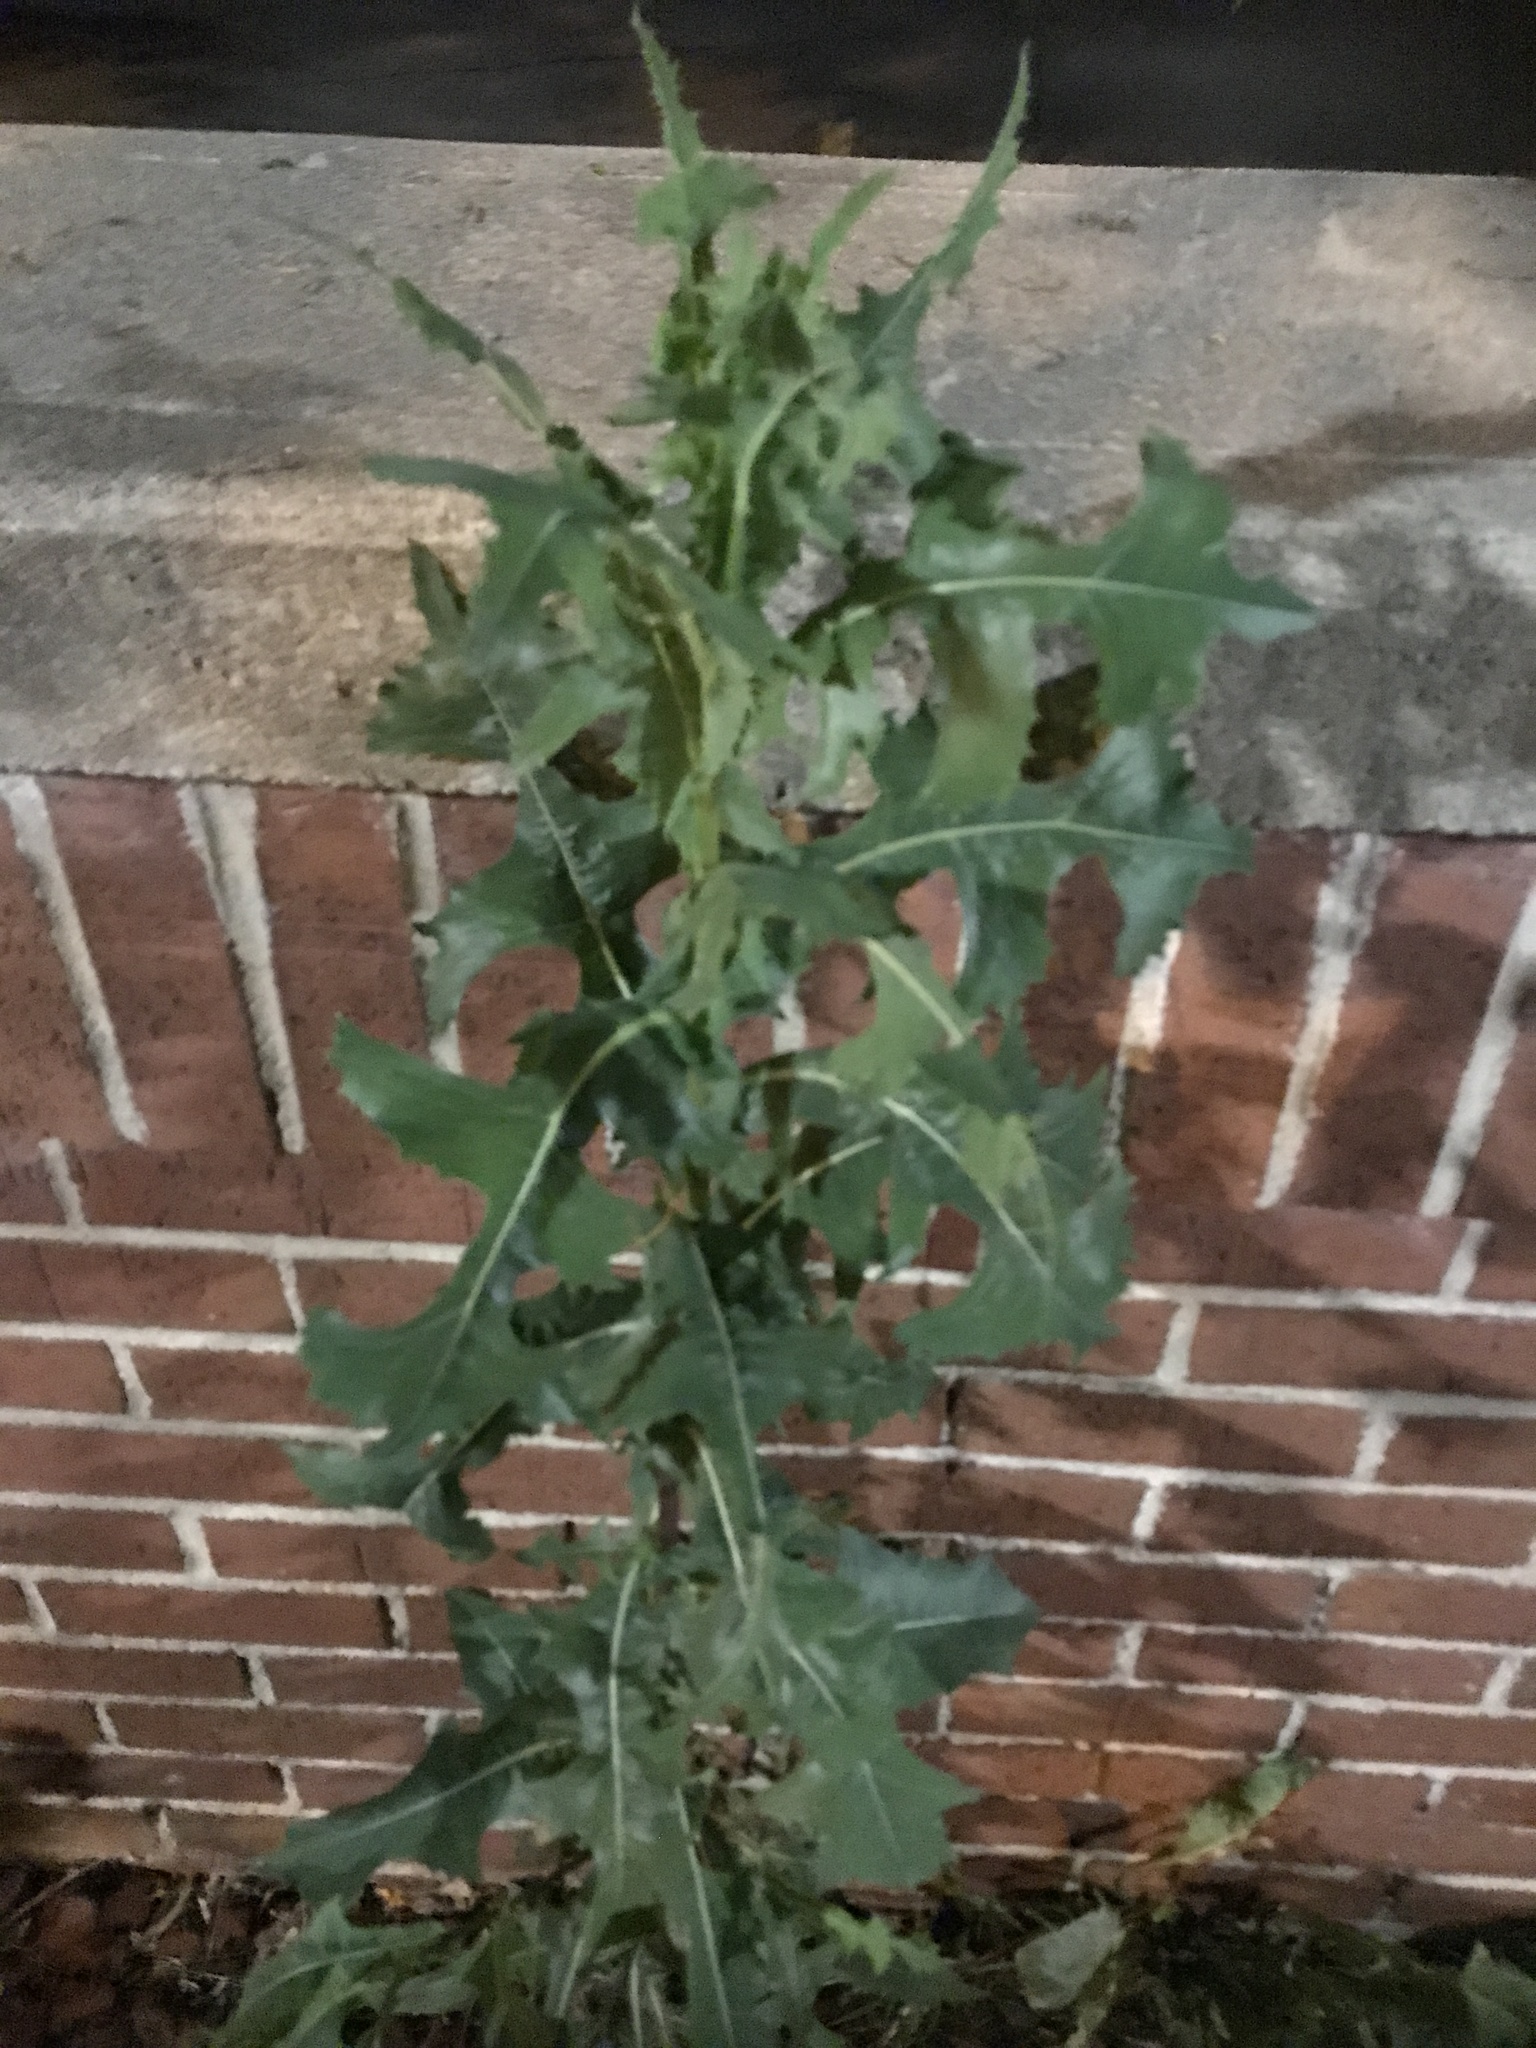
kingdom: Plantae
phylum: Tracheophyta
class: Magnoliopsida
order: Asterales
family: Asteraceae
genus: Lactuca
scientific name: Lactuca serriola
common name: Prickly lettuce
